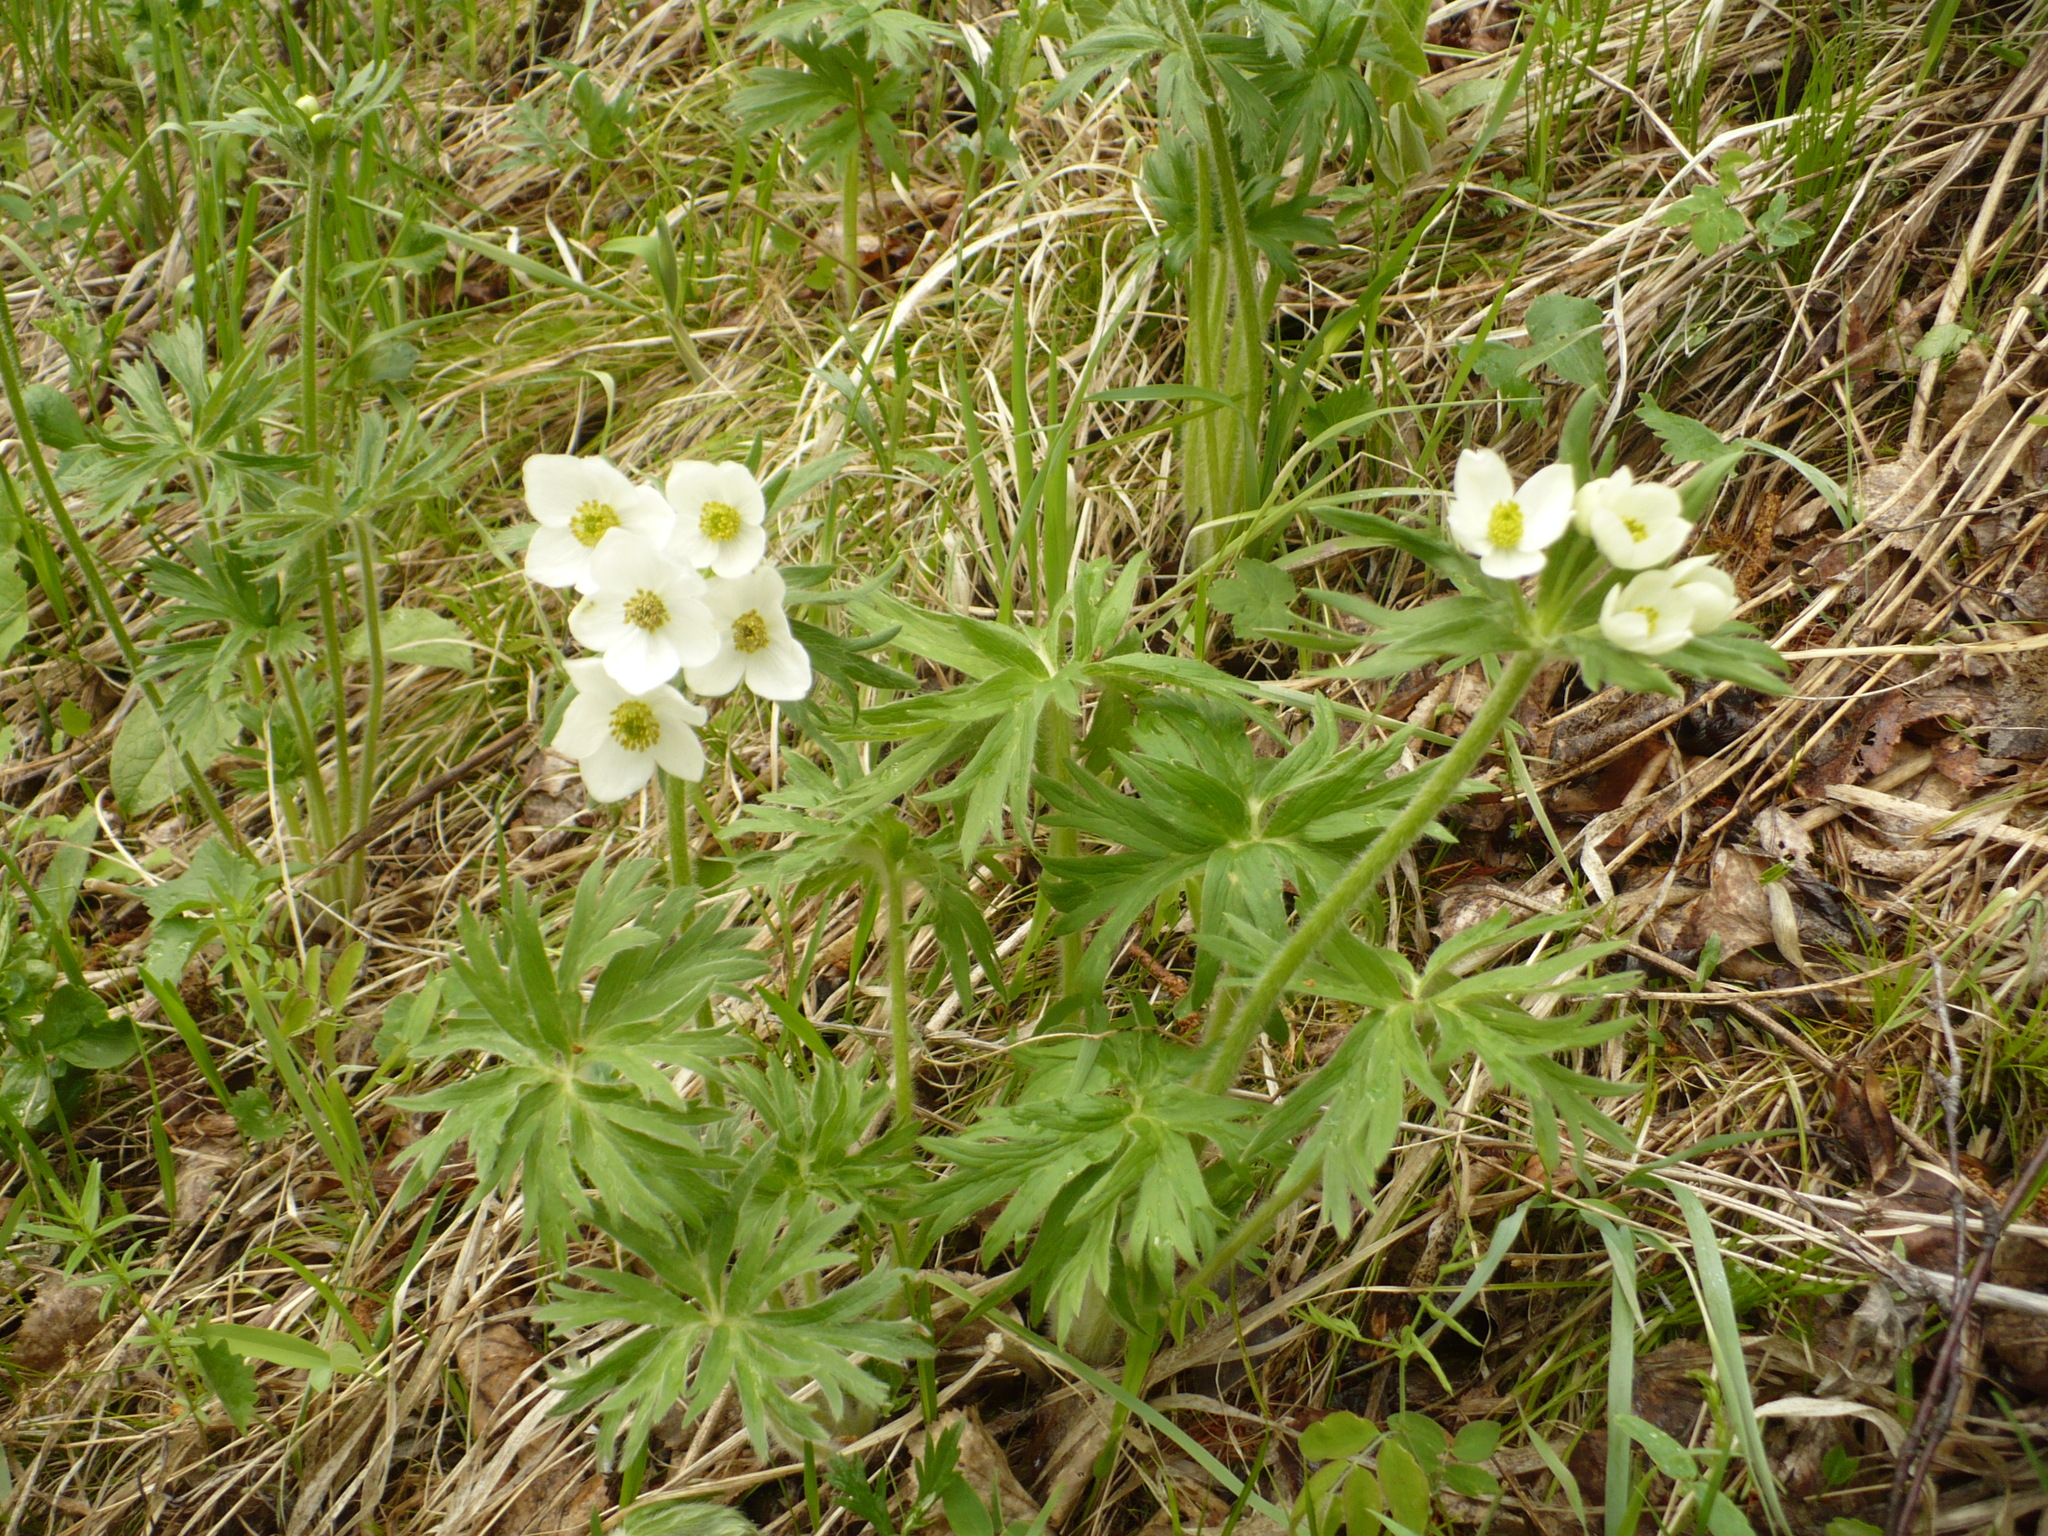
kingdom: Plantae
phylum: Tracheophyta
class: Magnoliopsida
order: Ranunculales
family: Ranunculaceae
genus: Anemonastrum
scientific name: Anemonastrum narcissiflorum
